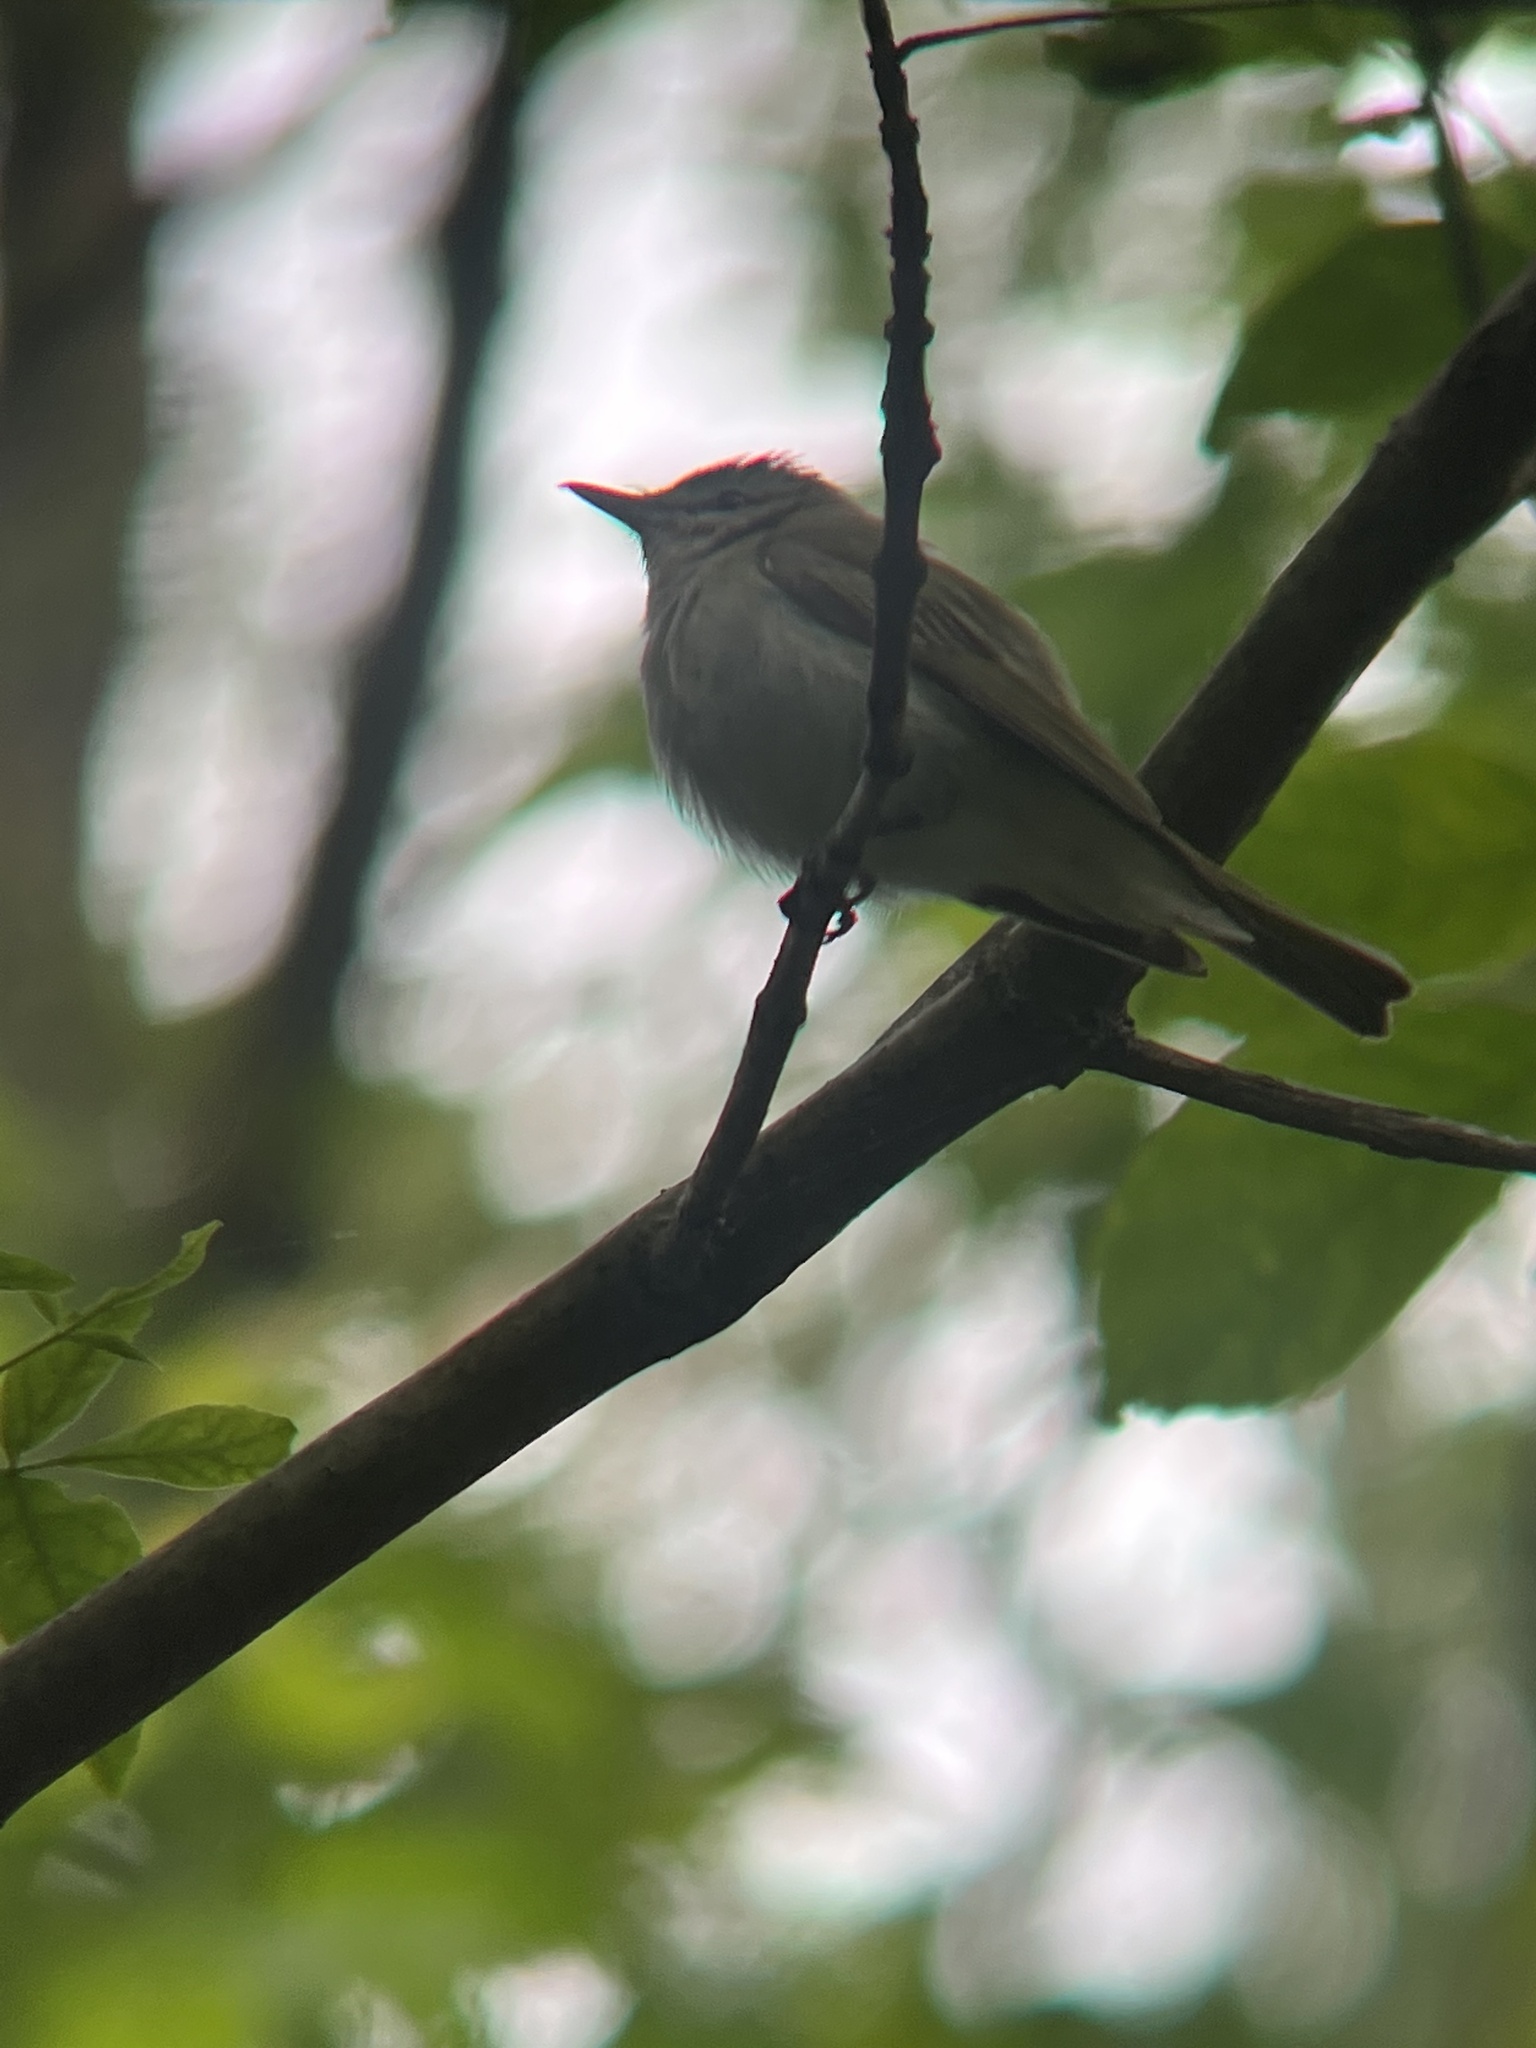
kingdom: Animalia
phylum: Chordata
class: Aves
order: Passeriformes
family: Vireonidae
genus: Vireo
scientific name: Vireo olivaceus
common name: Red-eyed vireo
